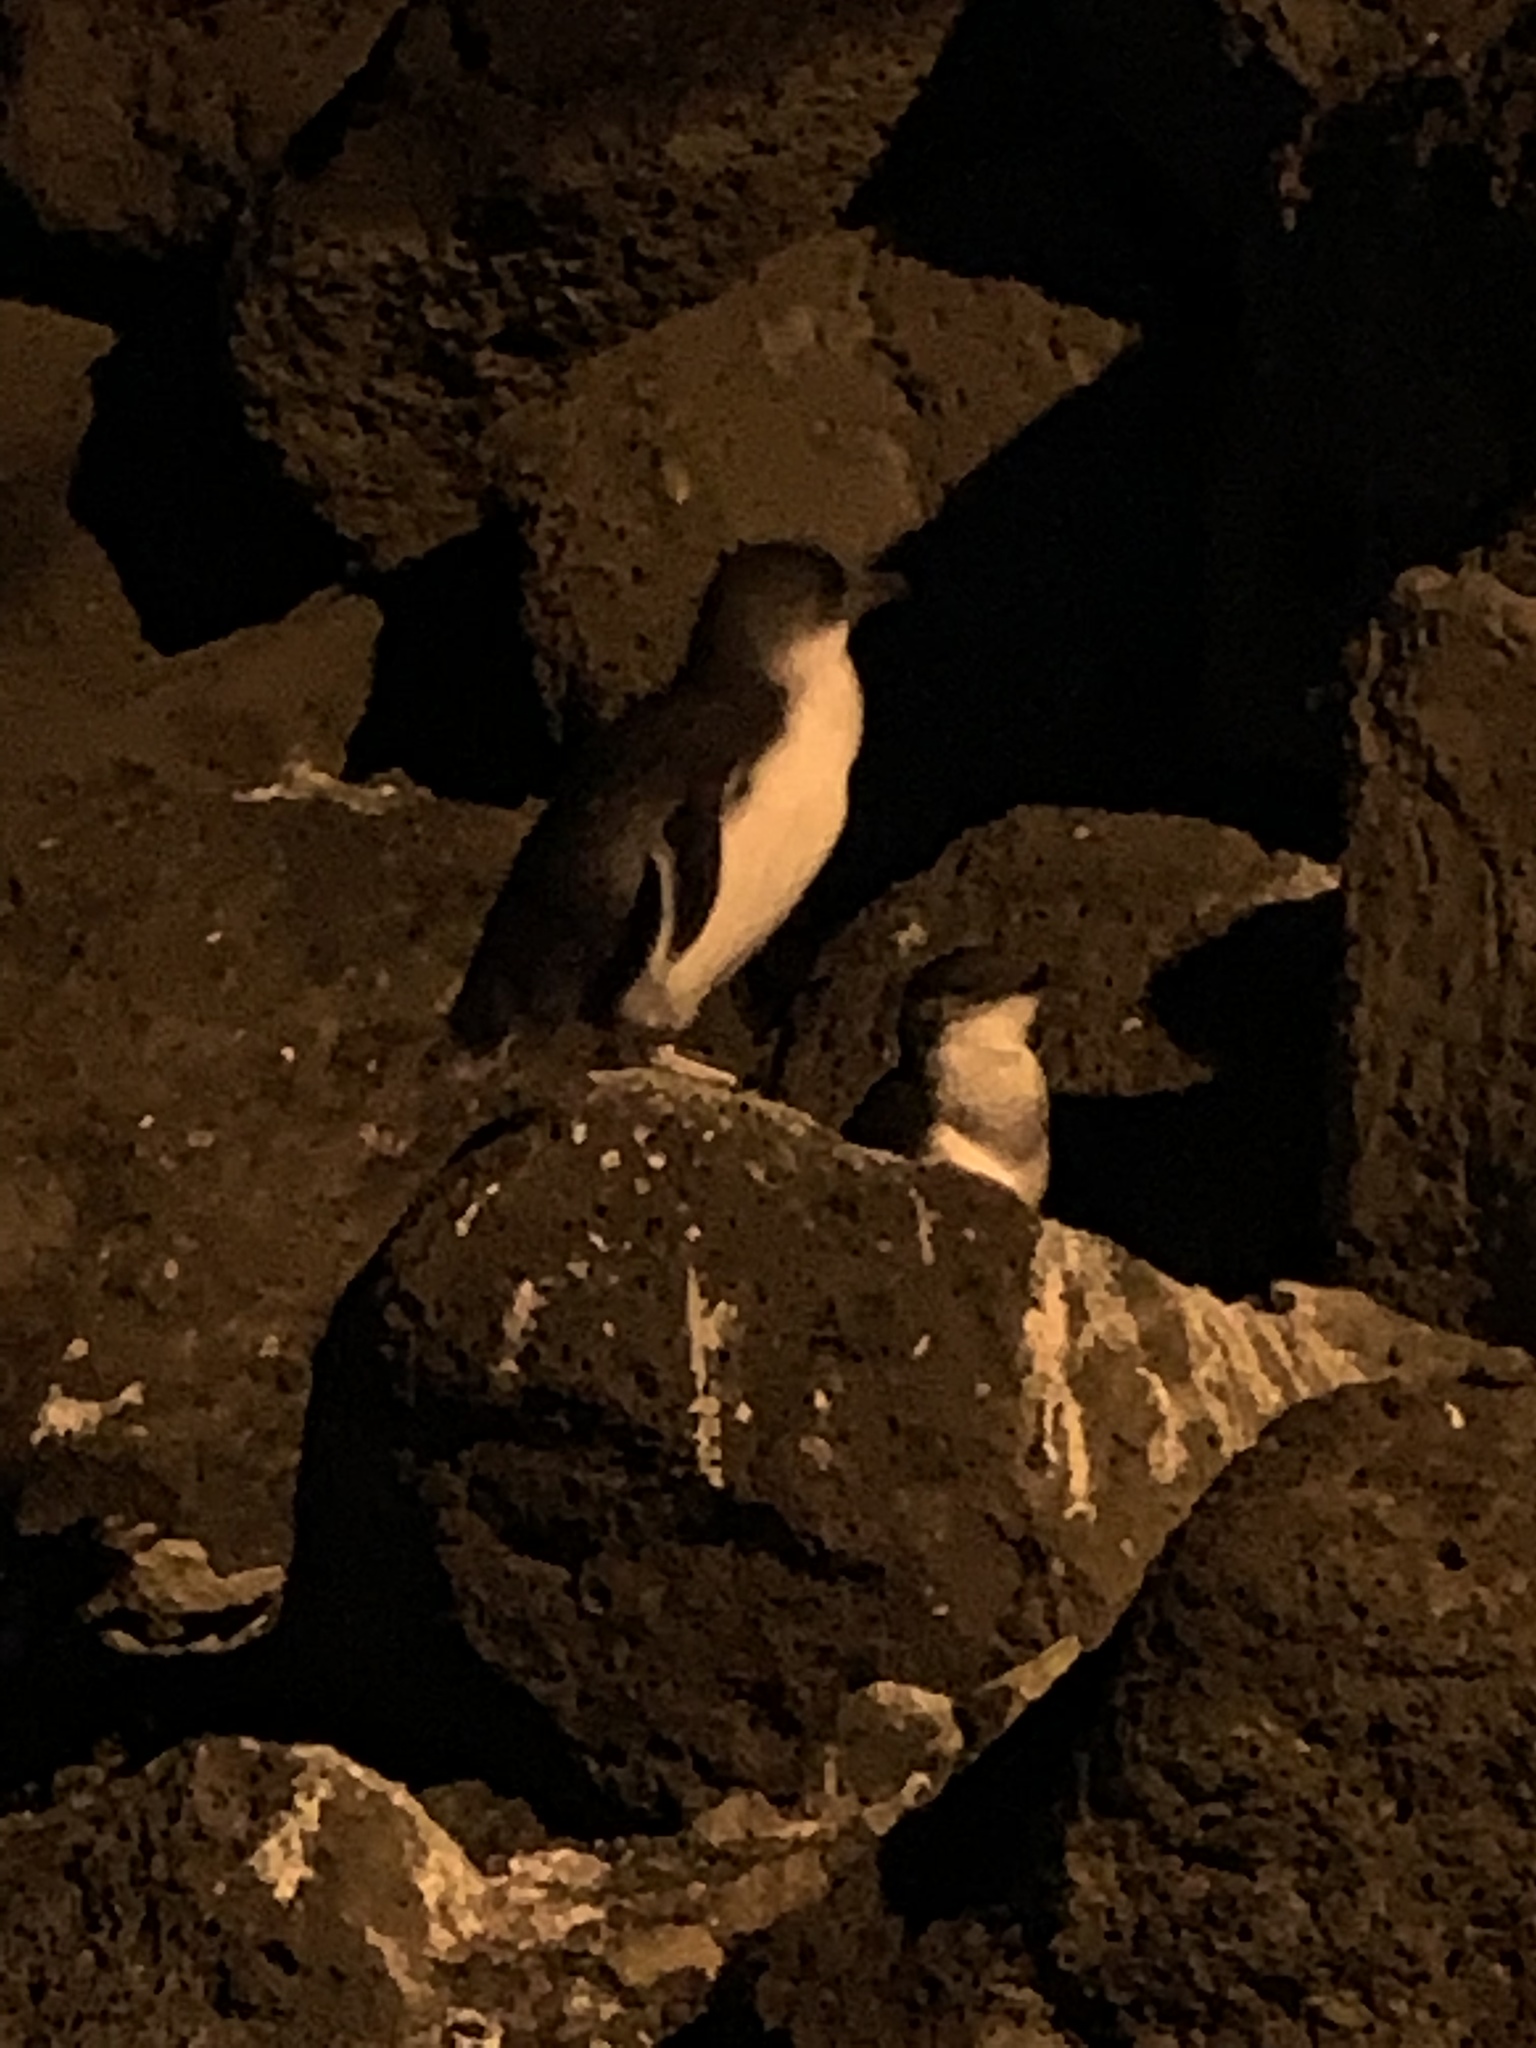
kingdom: Animalia
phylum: Chordata
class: Aves
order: Sphenisciformes
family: Spheniscidae
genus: Eudyptula
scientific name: Eudyptula minor
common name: Little penguin
